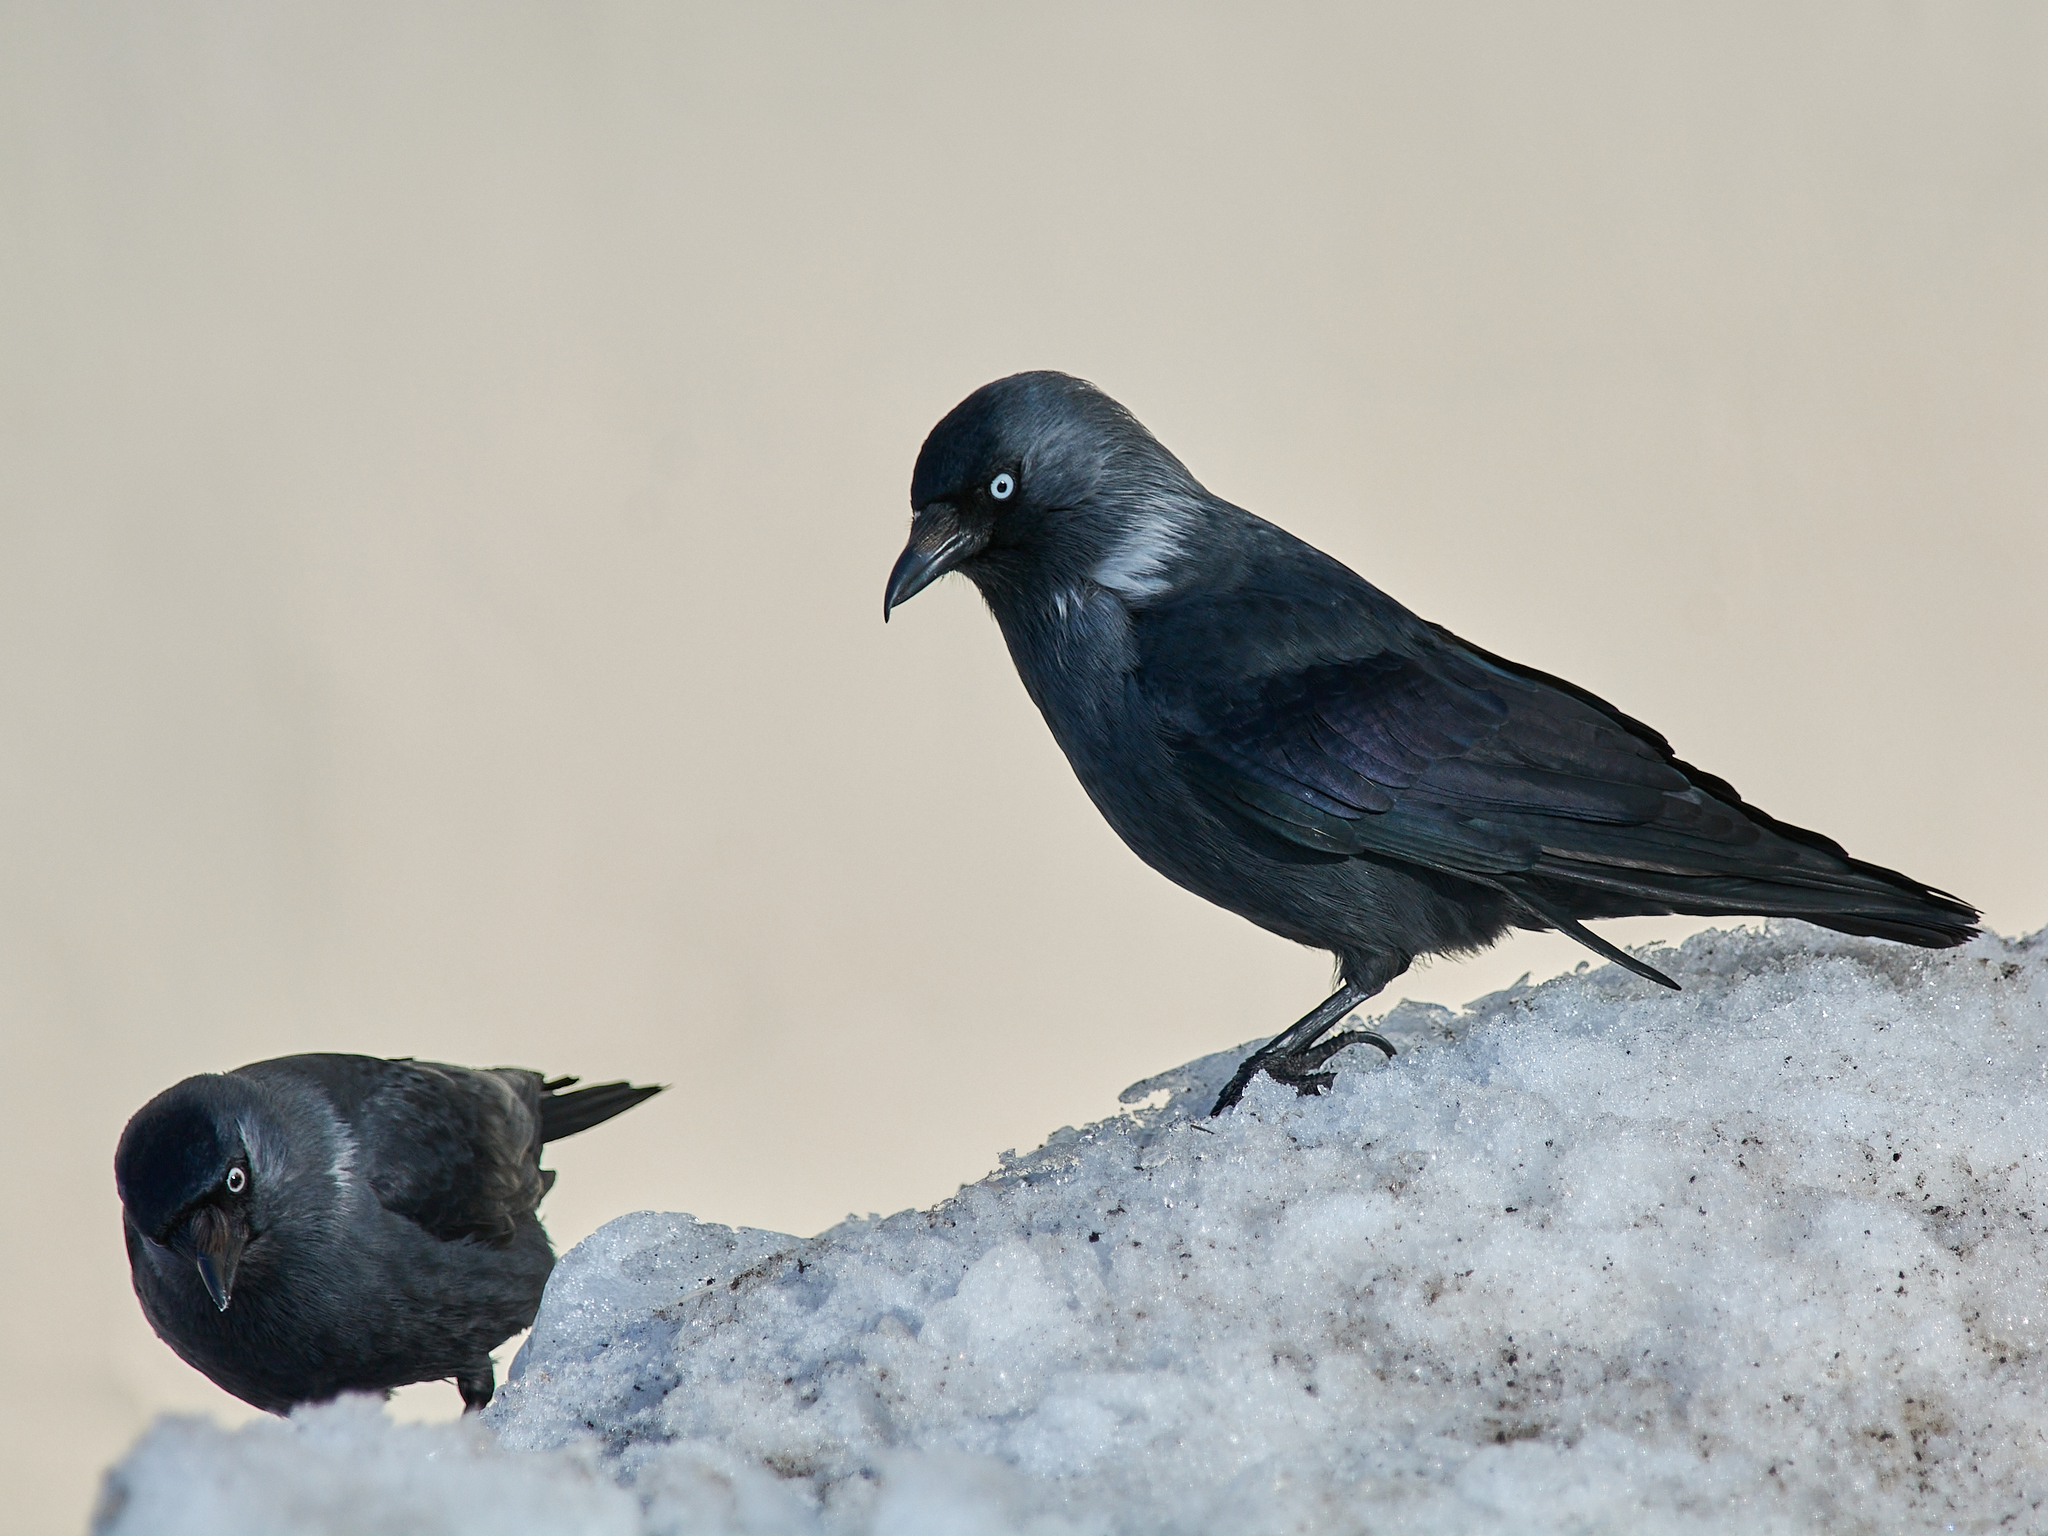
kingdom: Animalia
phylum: Chordata
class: Aves
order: Passeriformes
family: Corvidae
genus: Coloeus
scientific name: Coloeus monedula
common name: Western jackdaw
